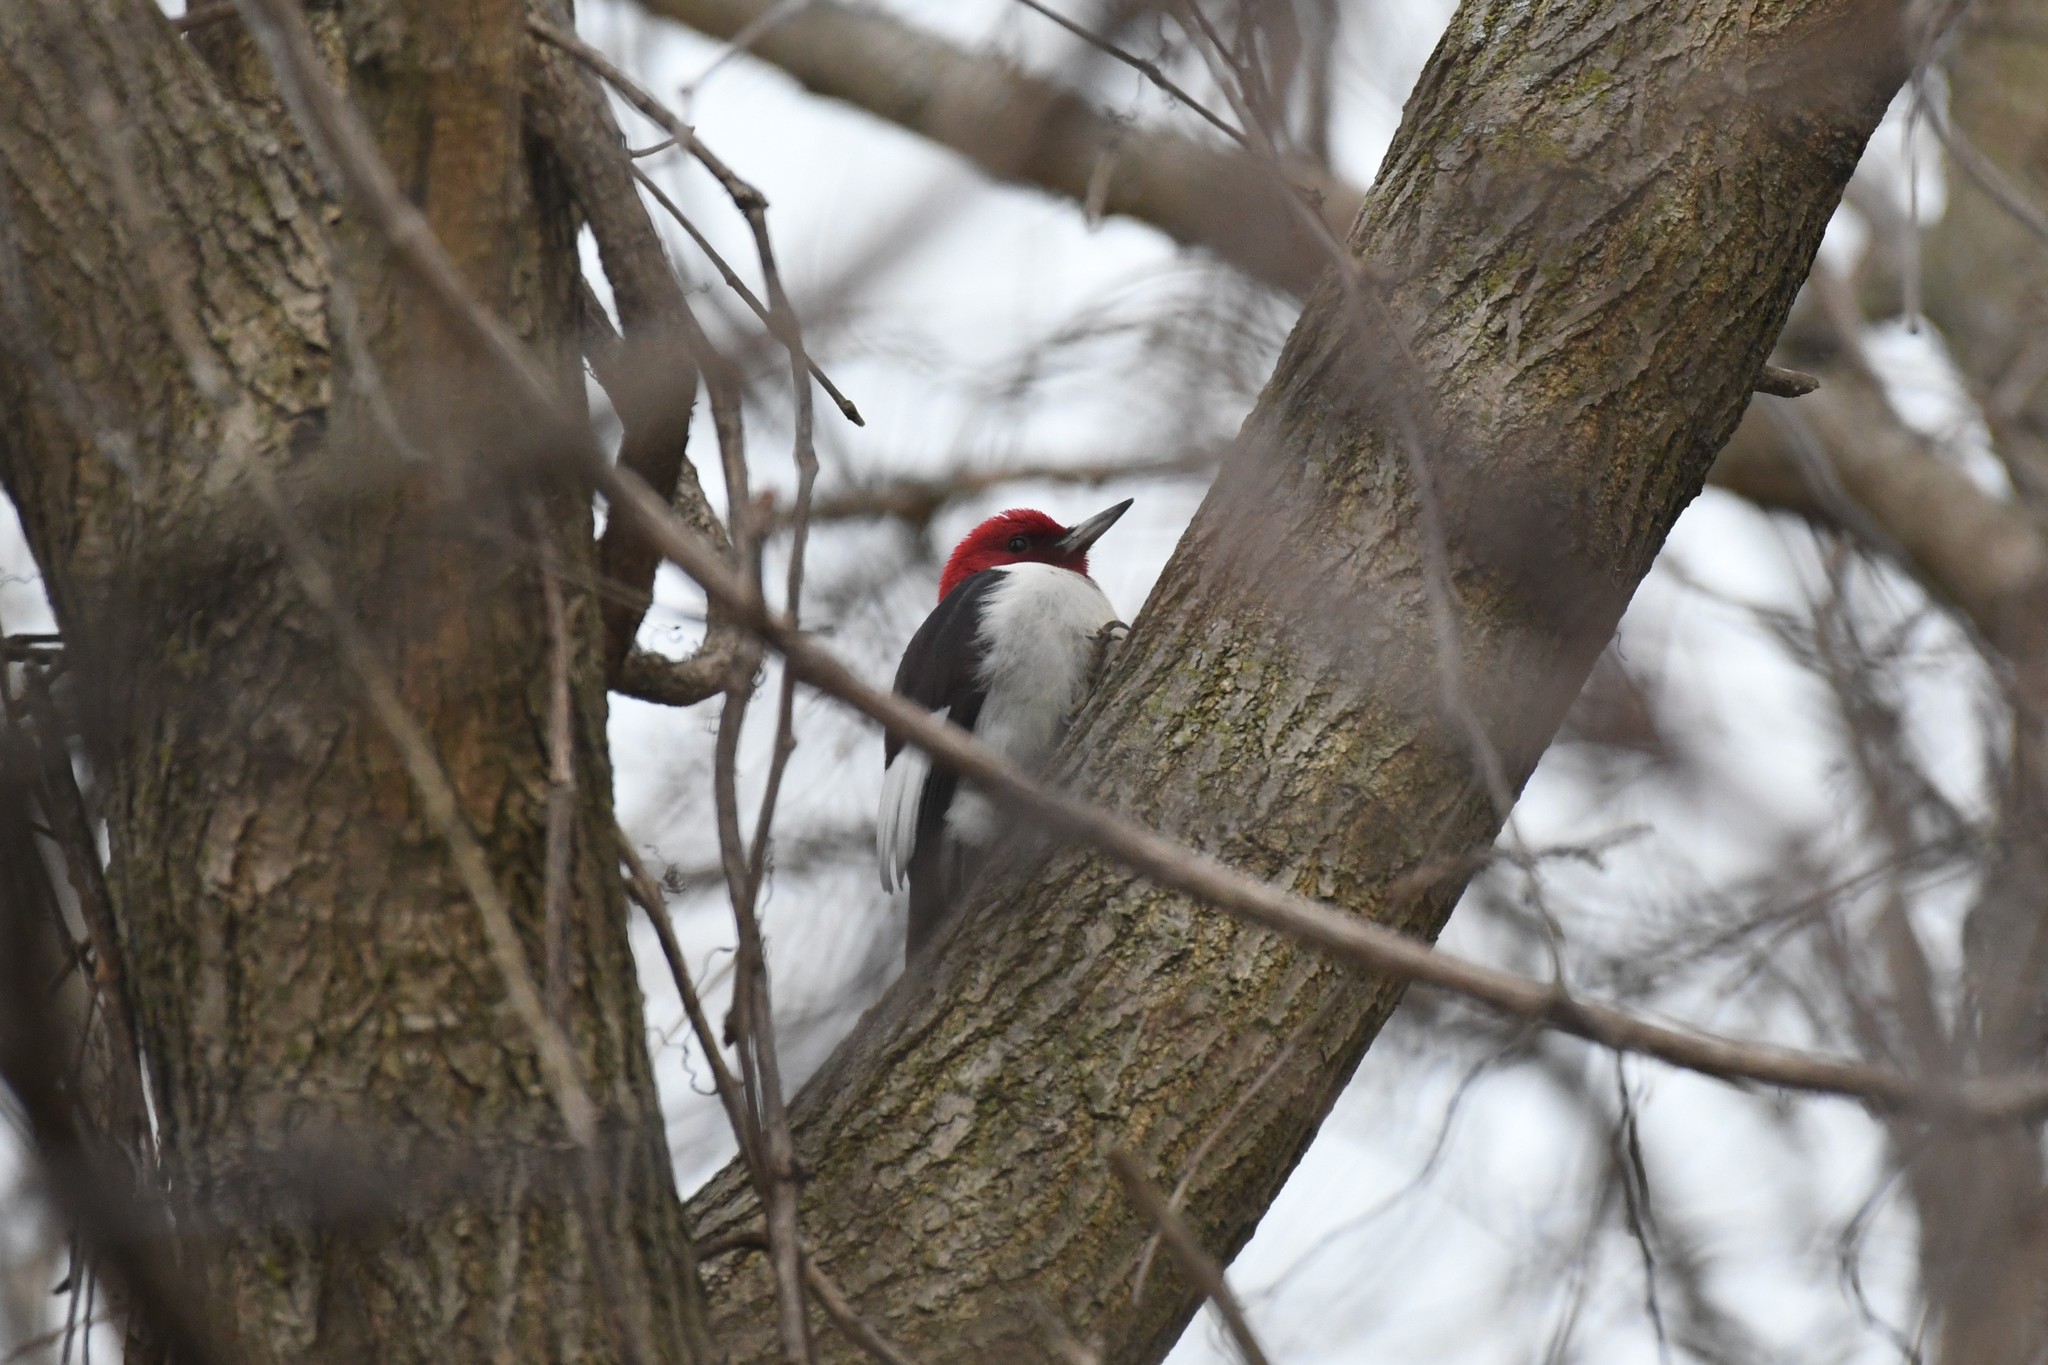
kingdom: Animalia
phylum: Chordata
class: Aves
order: Piciformes
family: Picidae
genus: Melanerpes
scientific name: Melanerpes erythrocephalus
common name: Red-headed woodpecker
